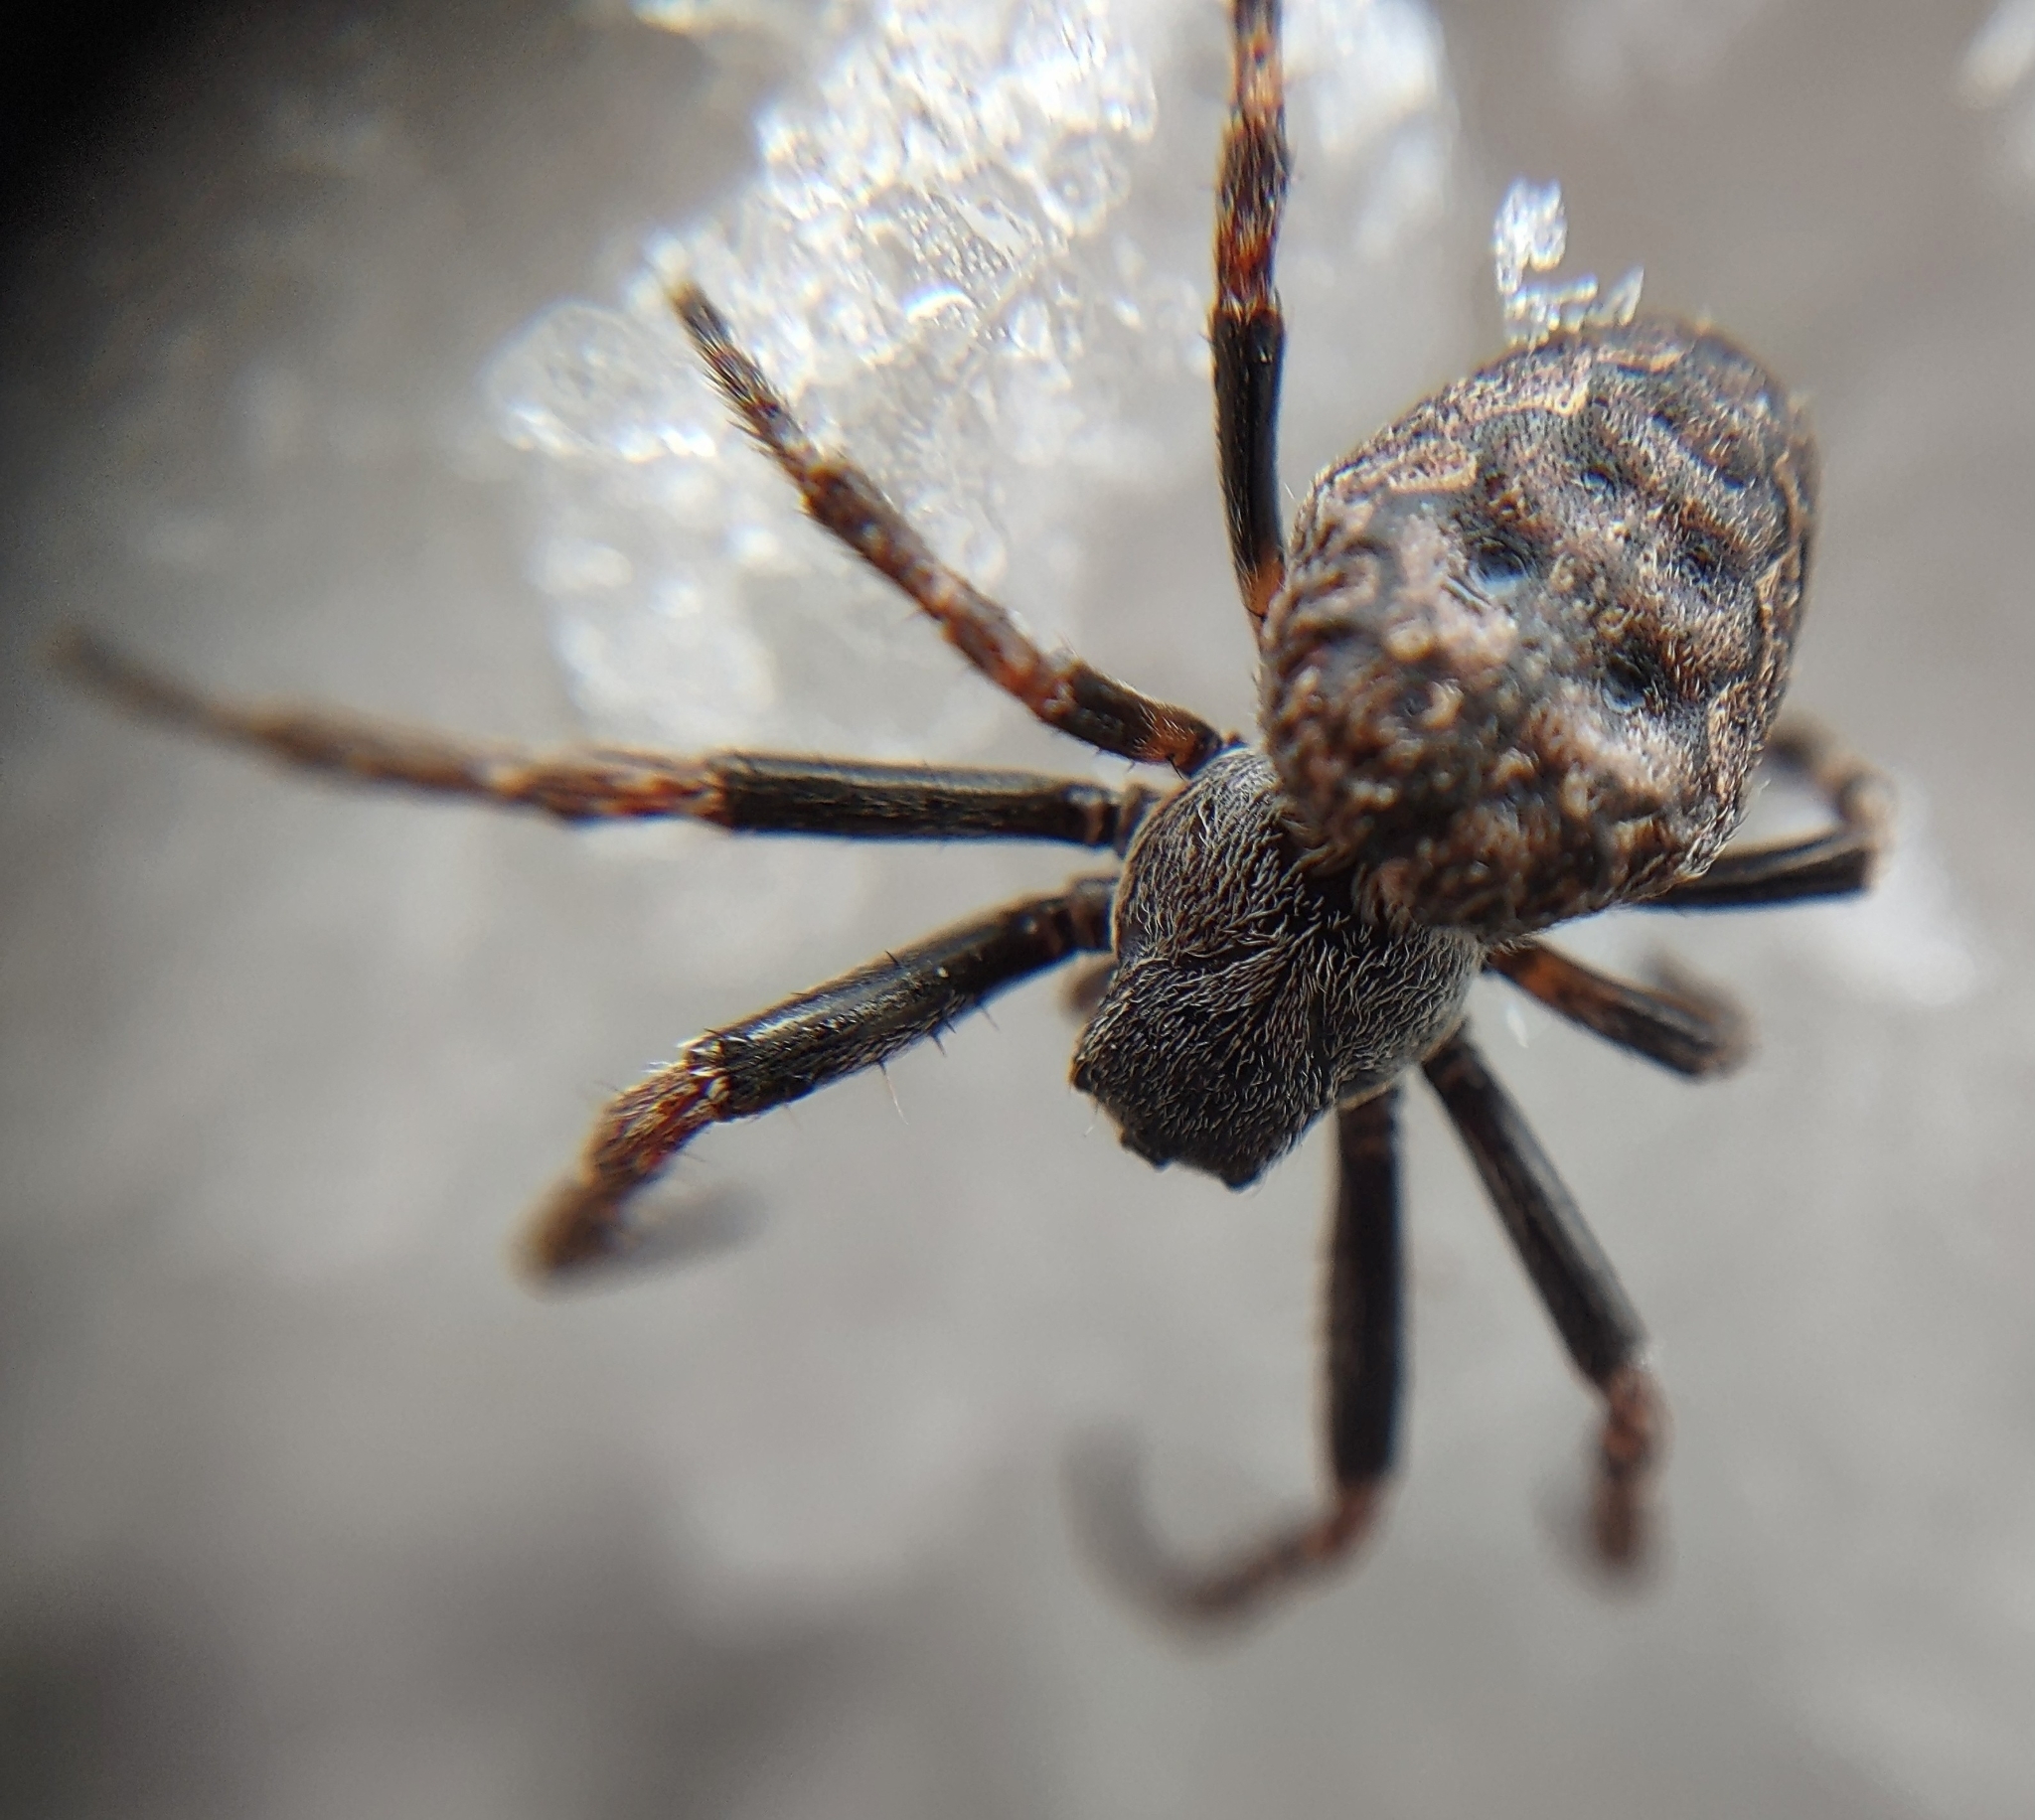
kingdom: Animalia
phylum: Arthropoda
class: Arachnida
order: Araneae
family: Araneidae
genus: Nuctenea
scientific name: Nuctenea umbratica
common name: Toad spider
